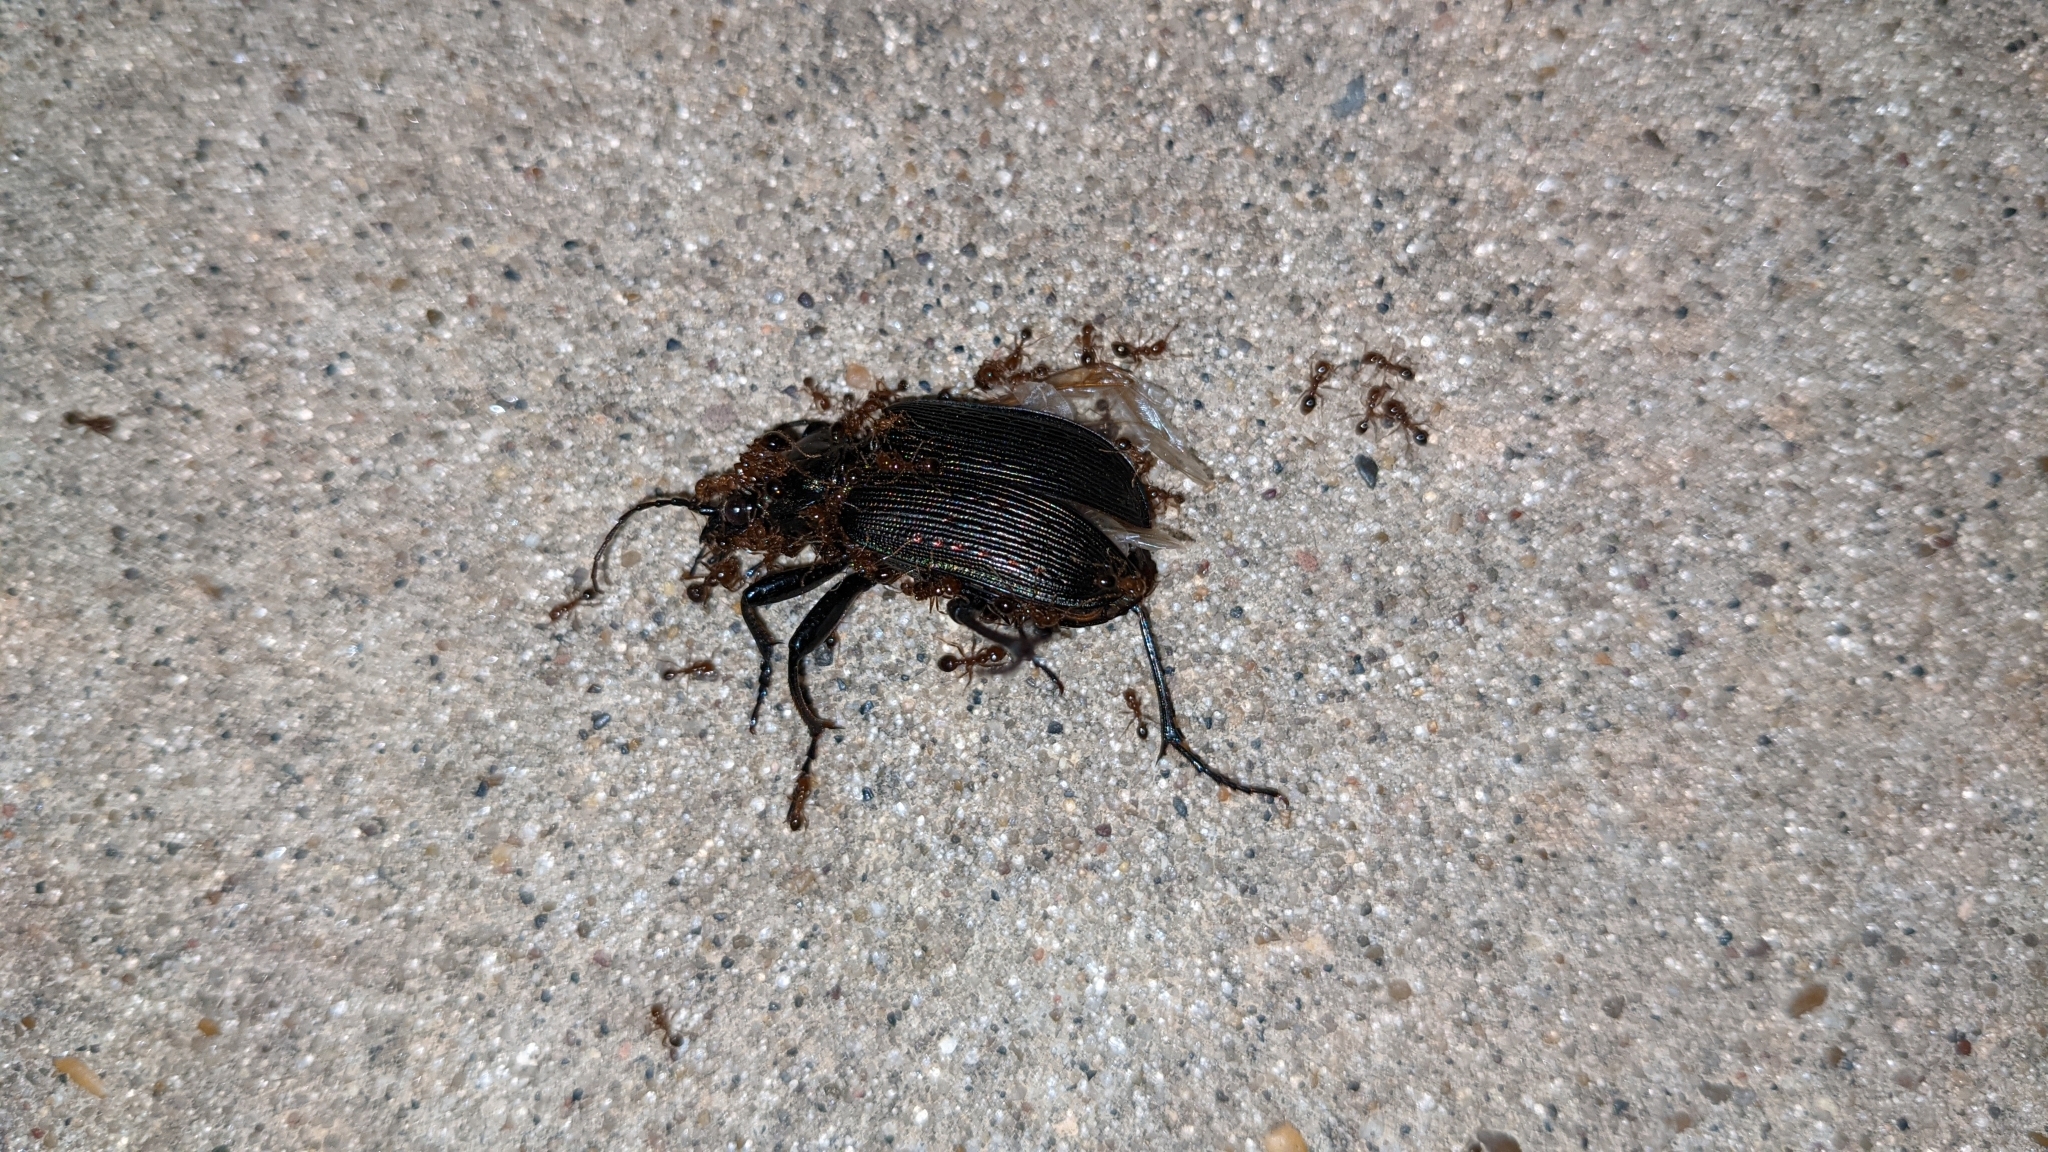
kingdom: Animalia
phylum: Arthropoda
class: Insecta
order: Coleoptera
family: Carabidae
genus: Calosoma
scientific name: Calosoma sayi
